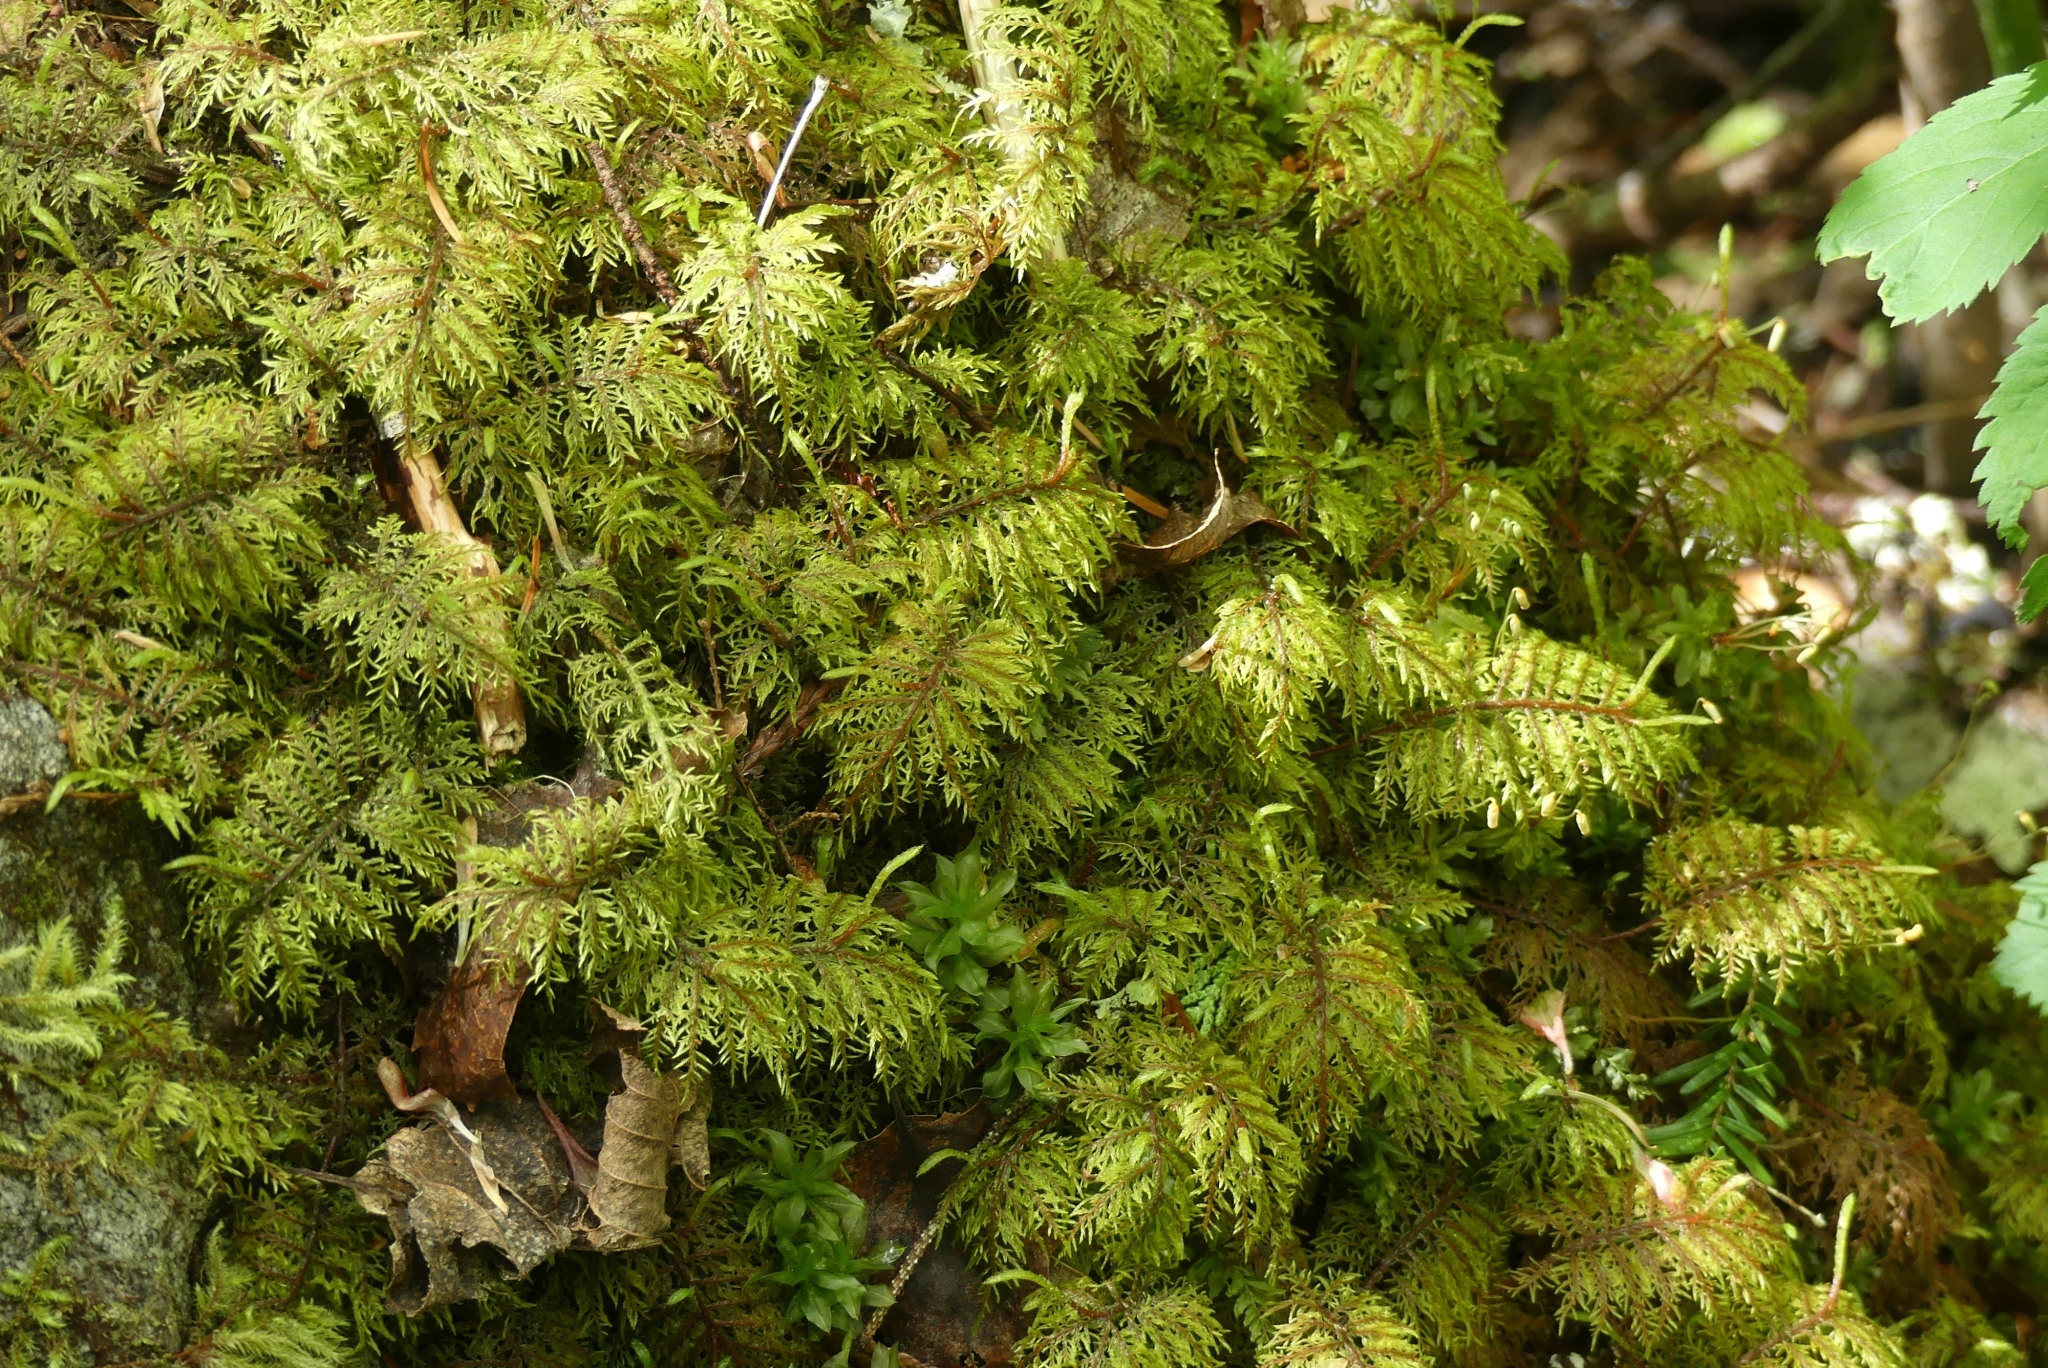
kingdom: Plantae
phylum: Bryophyta
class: Bryopsida
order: Hypnales
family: Hylocomiaceae
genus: Hylocomium
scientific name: Hylocomium splendens
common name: Stairstep moss
